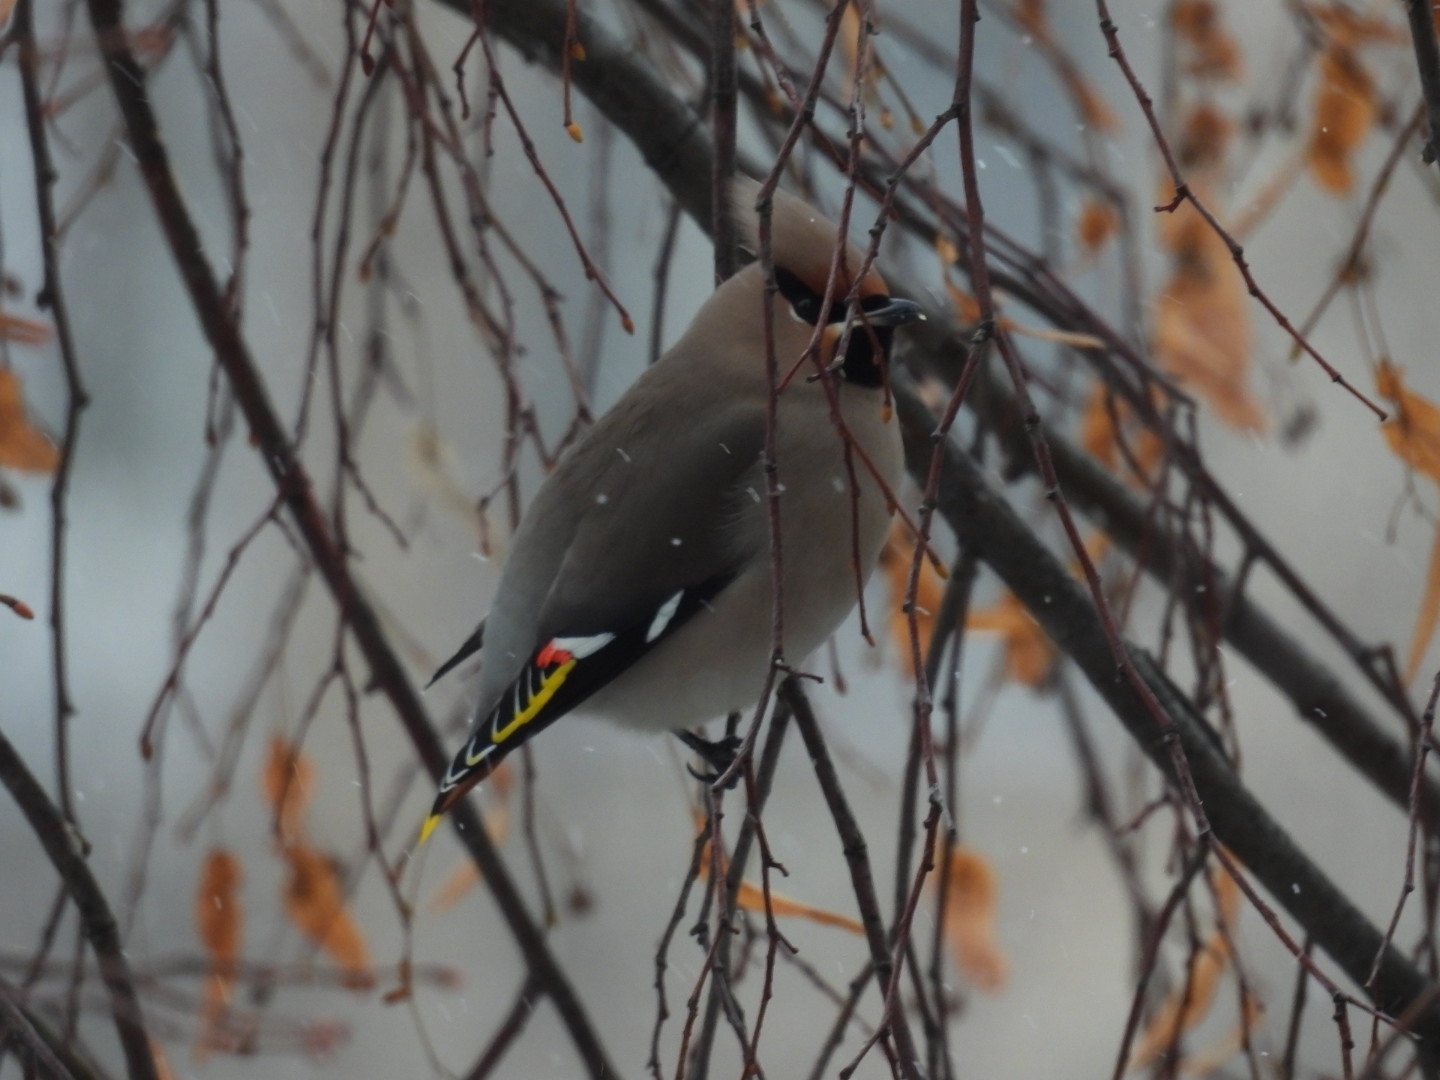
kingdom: Animalia
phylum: Chordata
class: Aves
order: Passeriformes
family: Bombycillidae
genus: Bombycilla
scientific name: Bombycilla garrulus
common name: Bohemian waxwing
